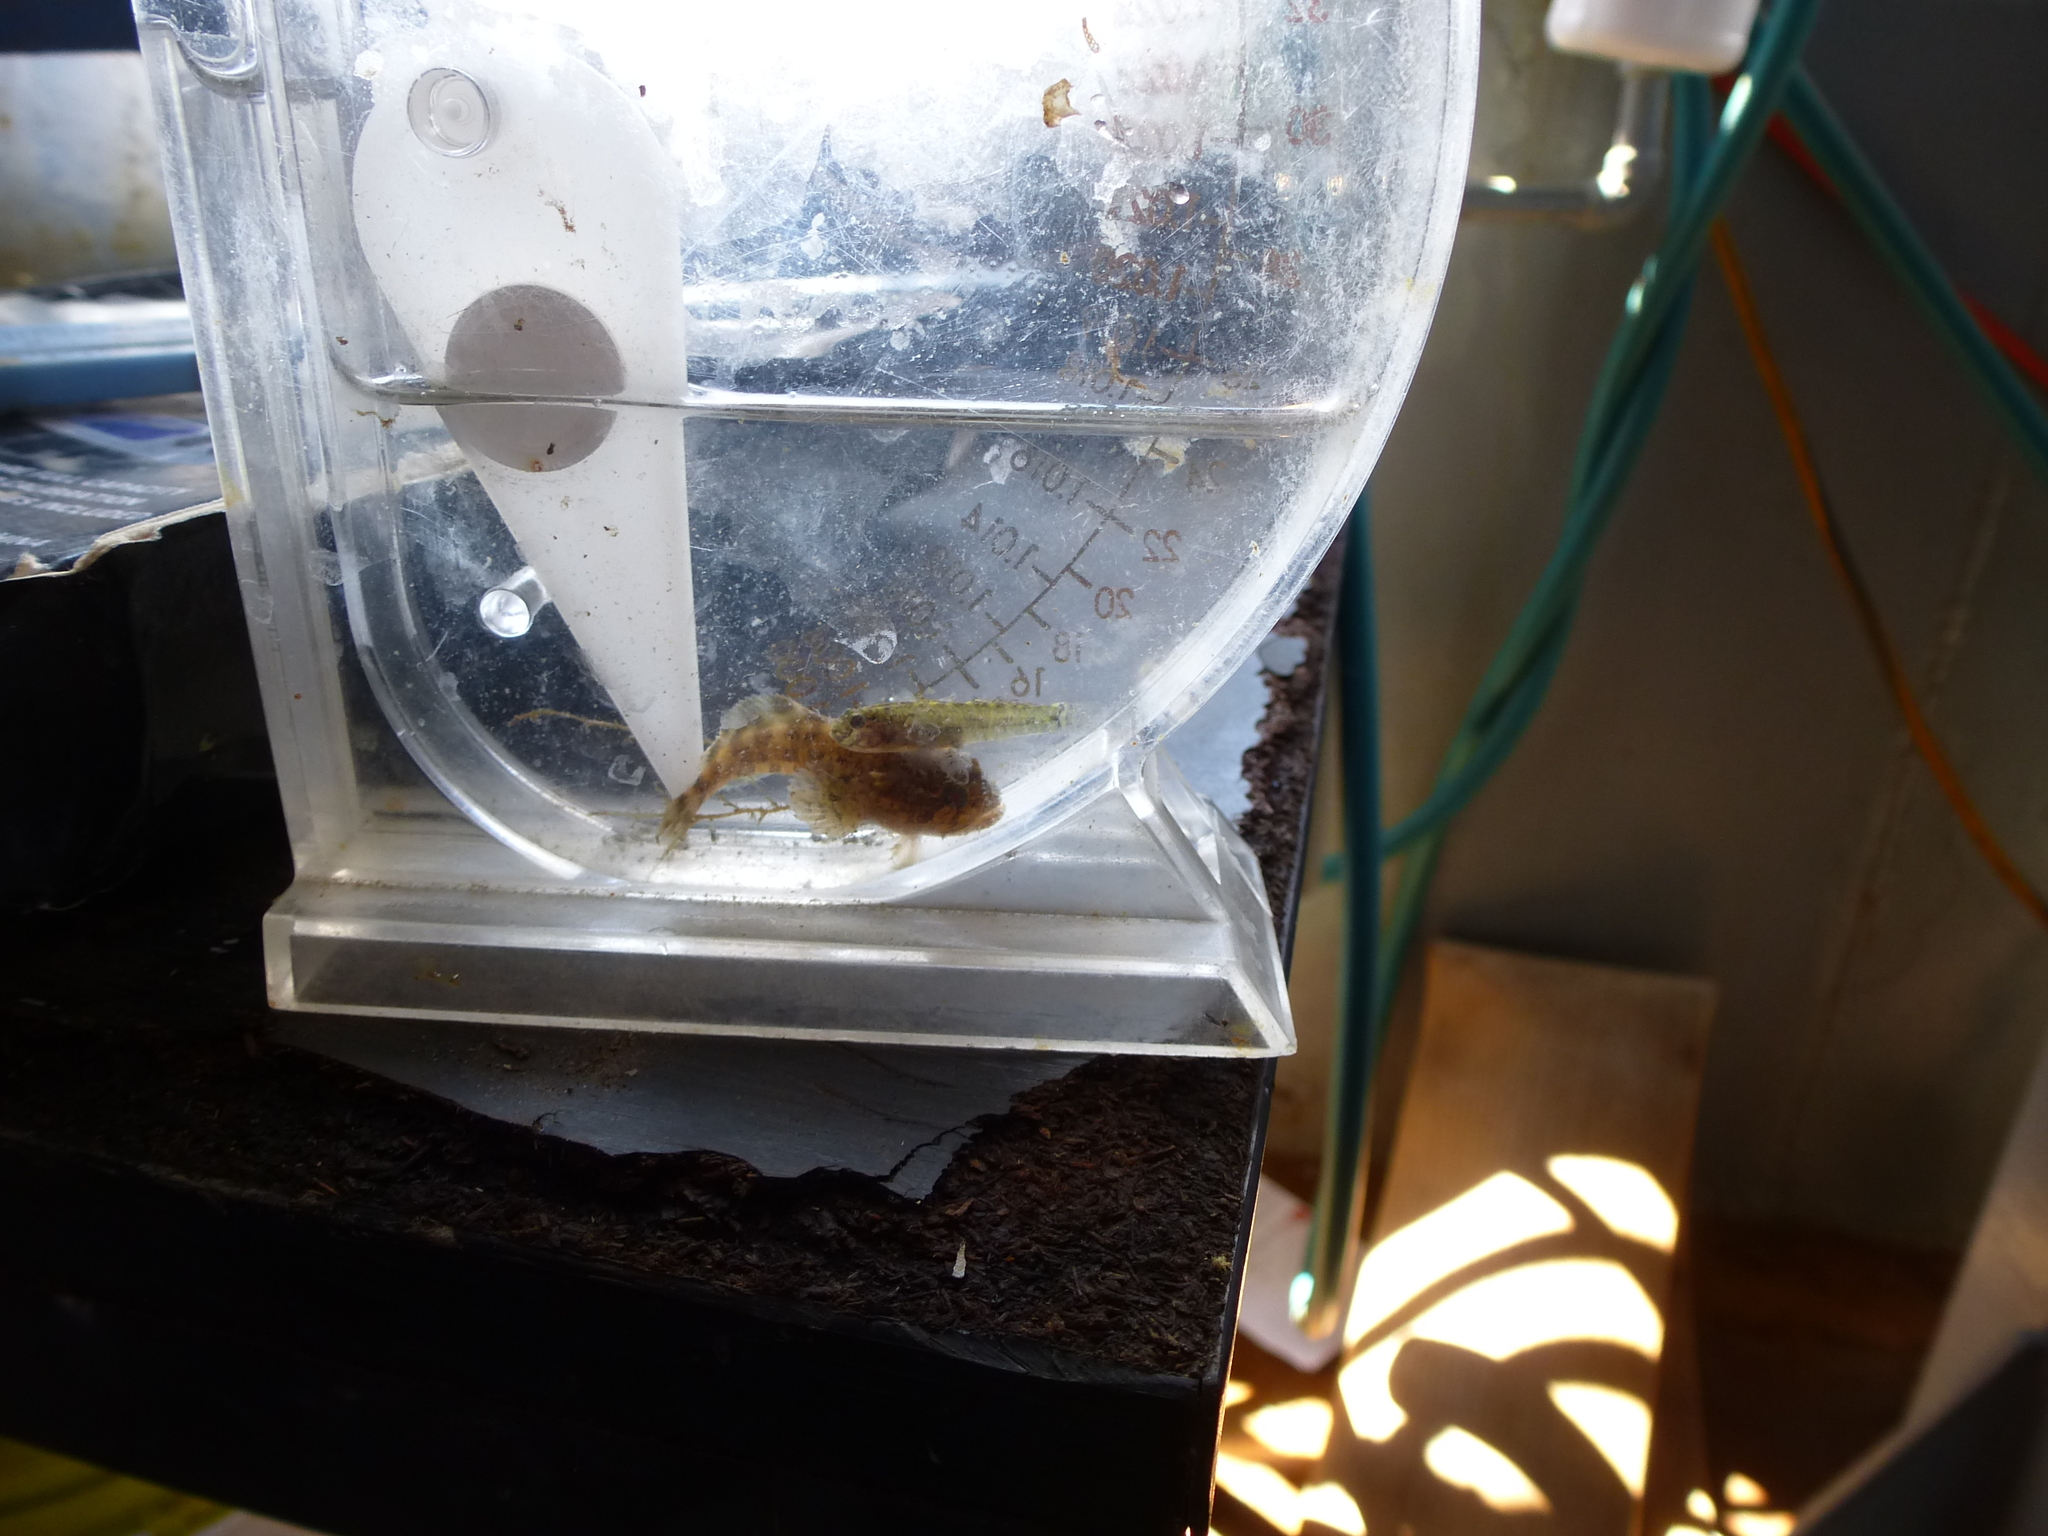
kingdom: Animalia
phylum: Chordata
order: Batrachoidiformes
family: Batrachoididae
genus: Opsanus
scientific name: Opsanus tau
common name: Oyster toadfish
